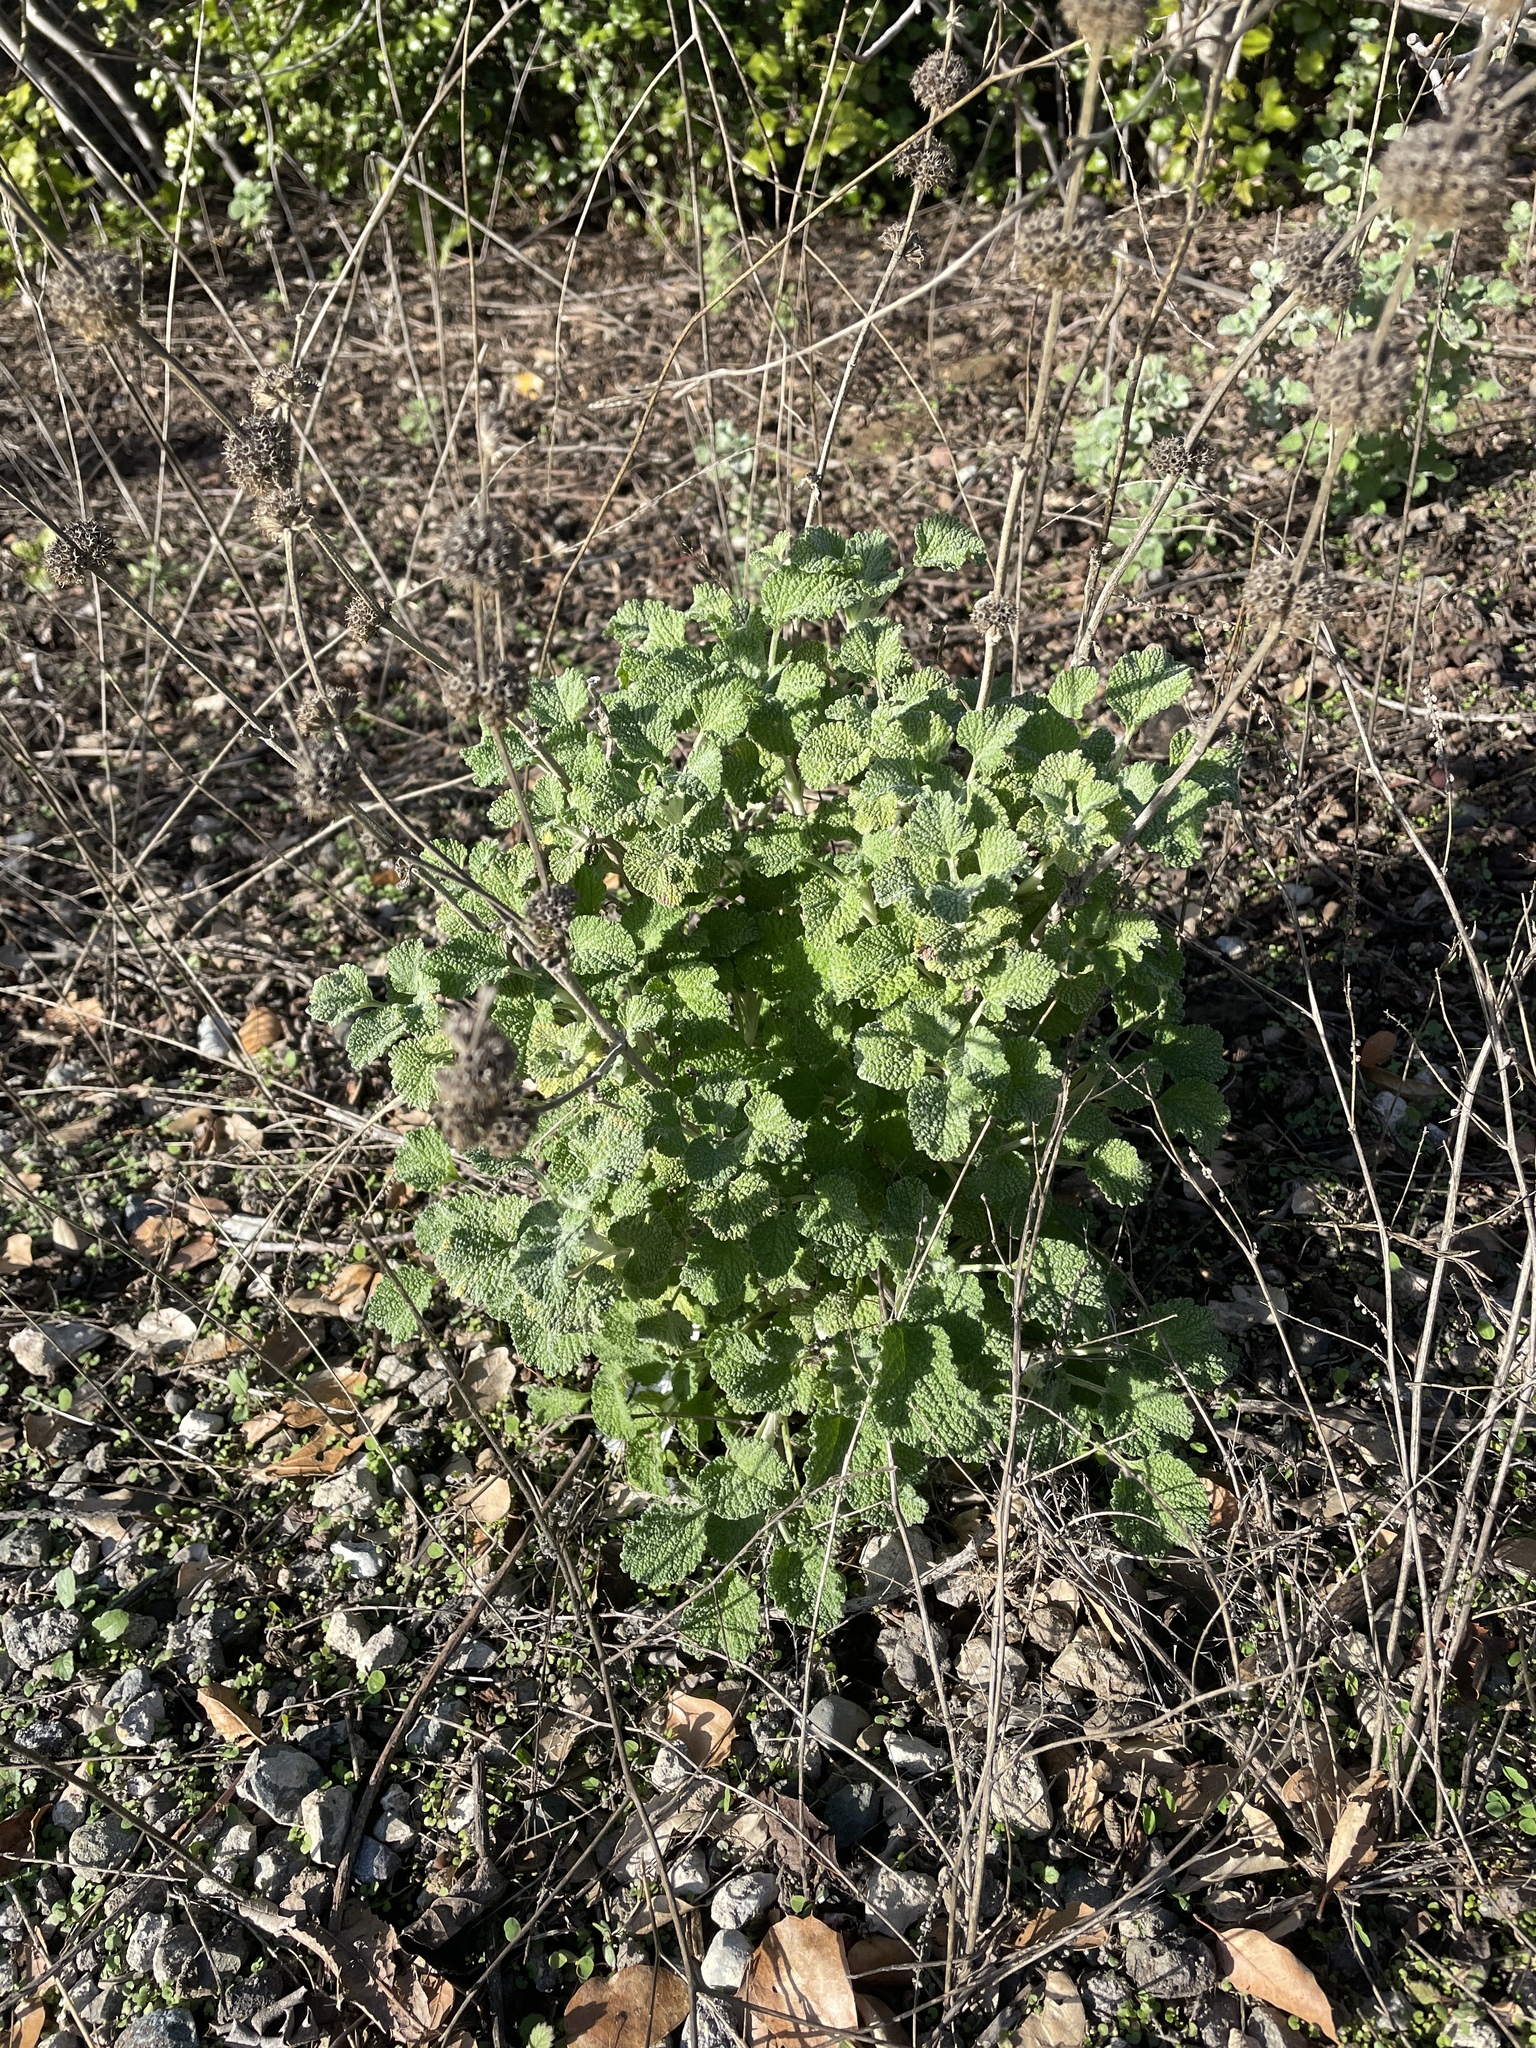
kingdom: Plantae
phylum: Tracheophyta
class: Magnoliopsida
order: Lamiales
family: Lamiaceae
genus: Marrubium
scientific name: Marrubium vulgare
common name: Horehound
